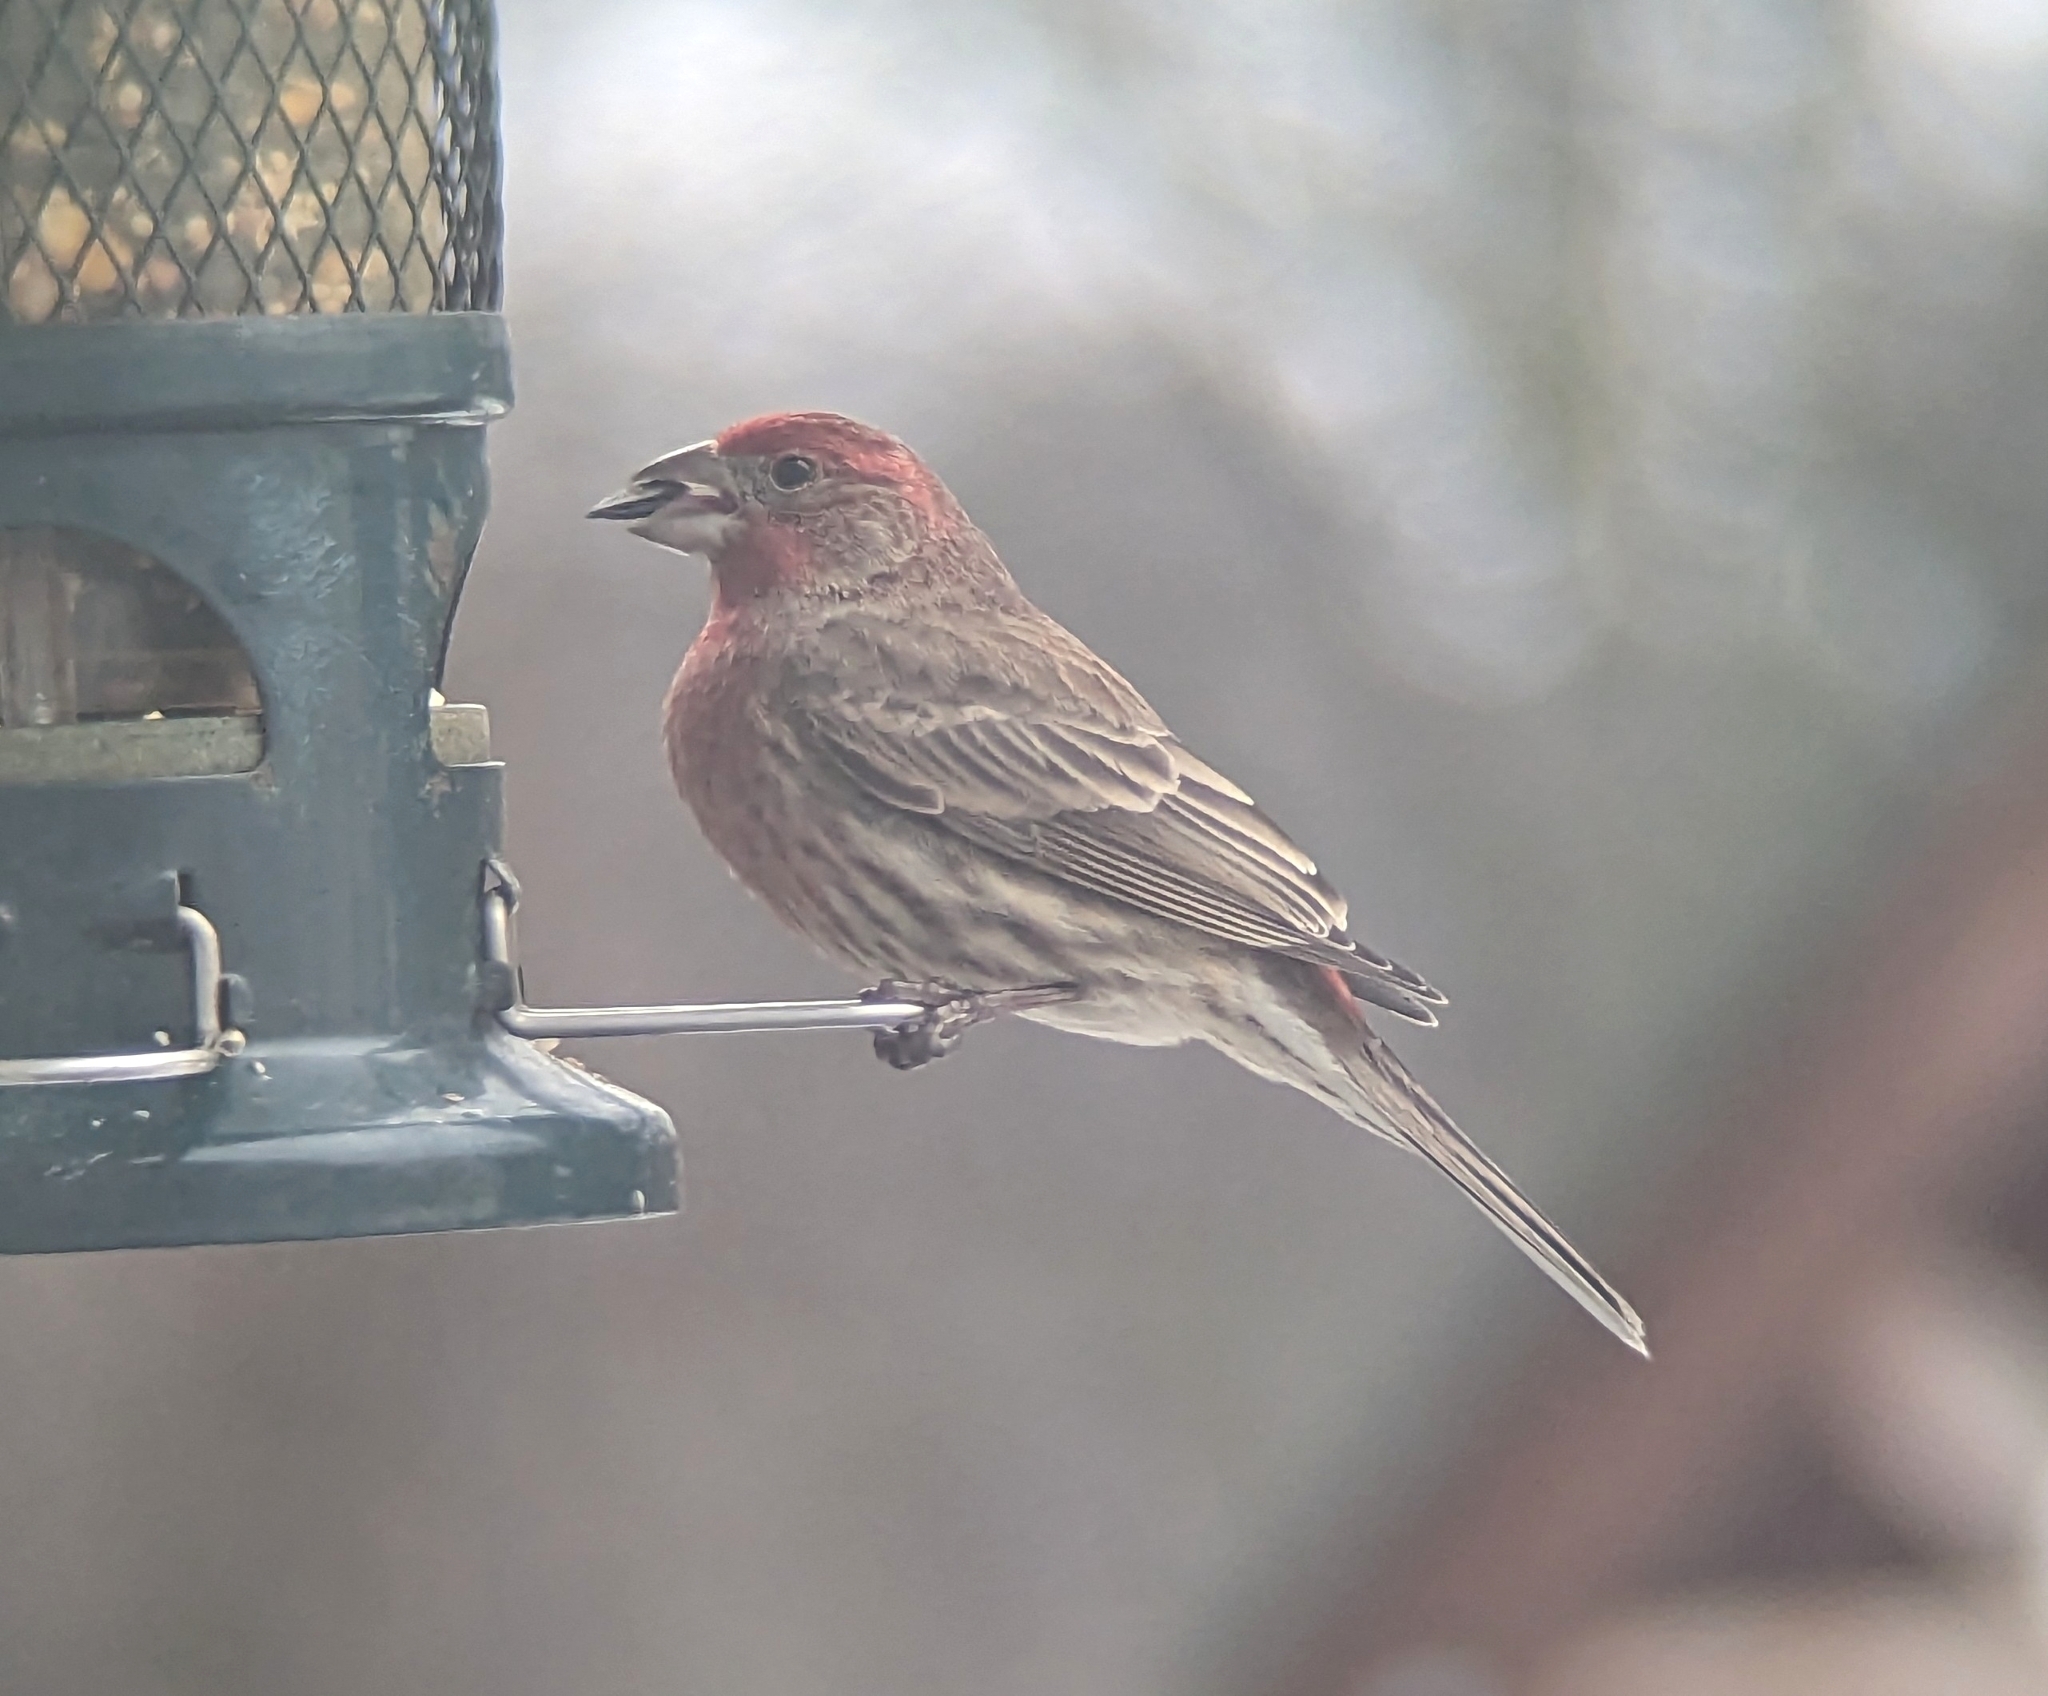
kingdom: Animalia
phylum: Chordata
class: Aves
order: Passeriformes
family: Fringillidae
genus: Haemorhous
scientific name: Haemorhous mexicanus
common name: House finch
